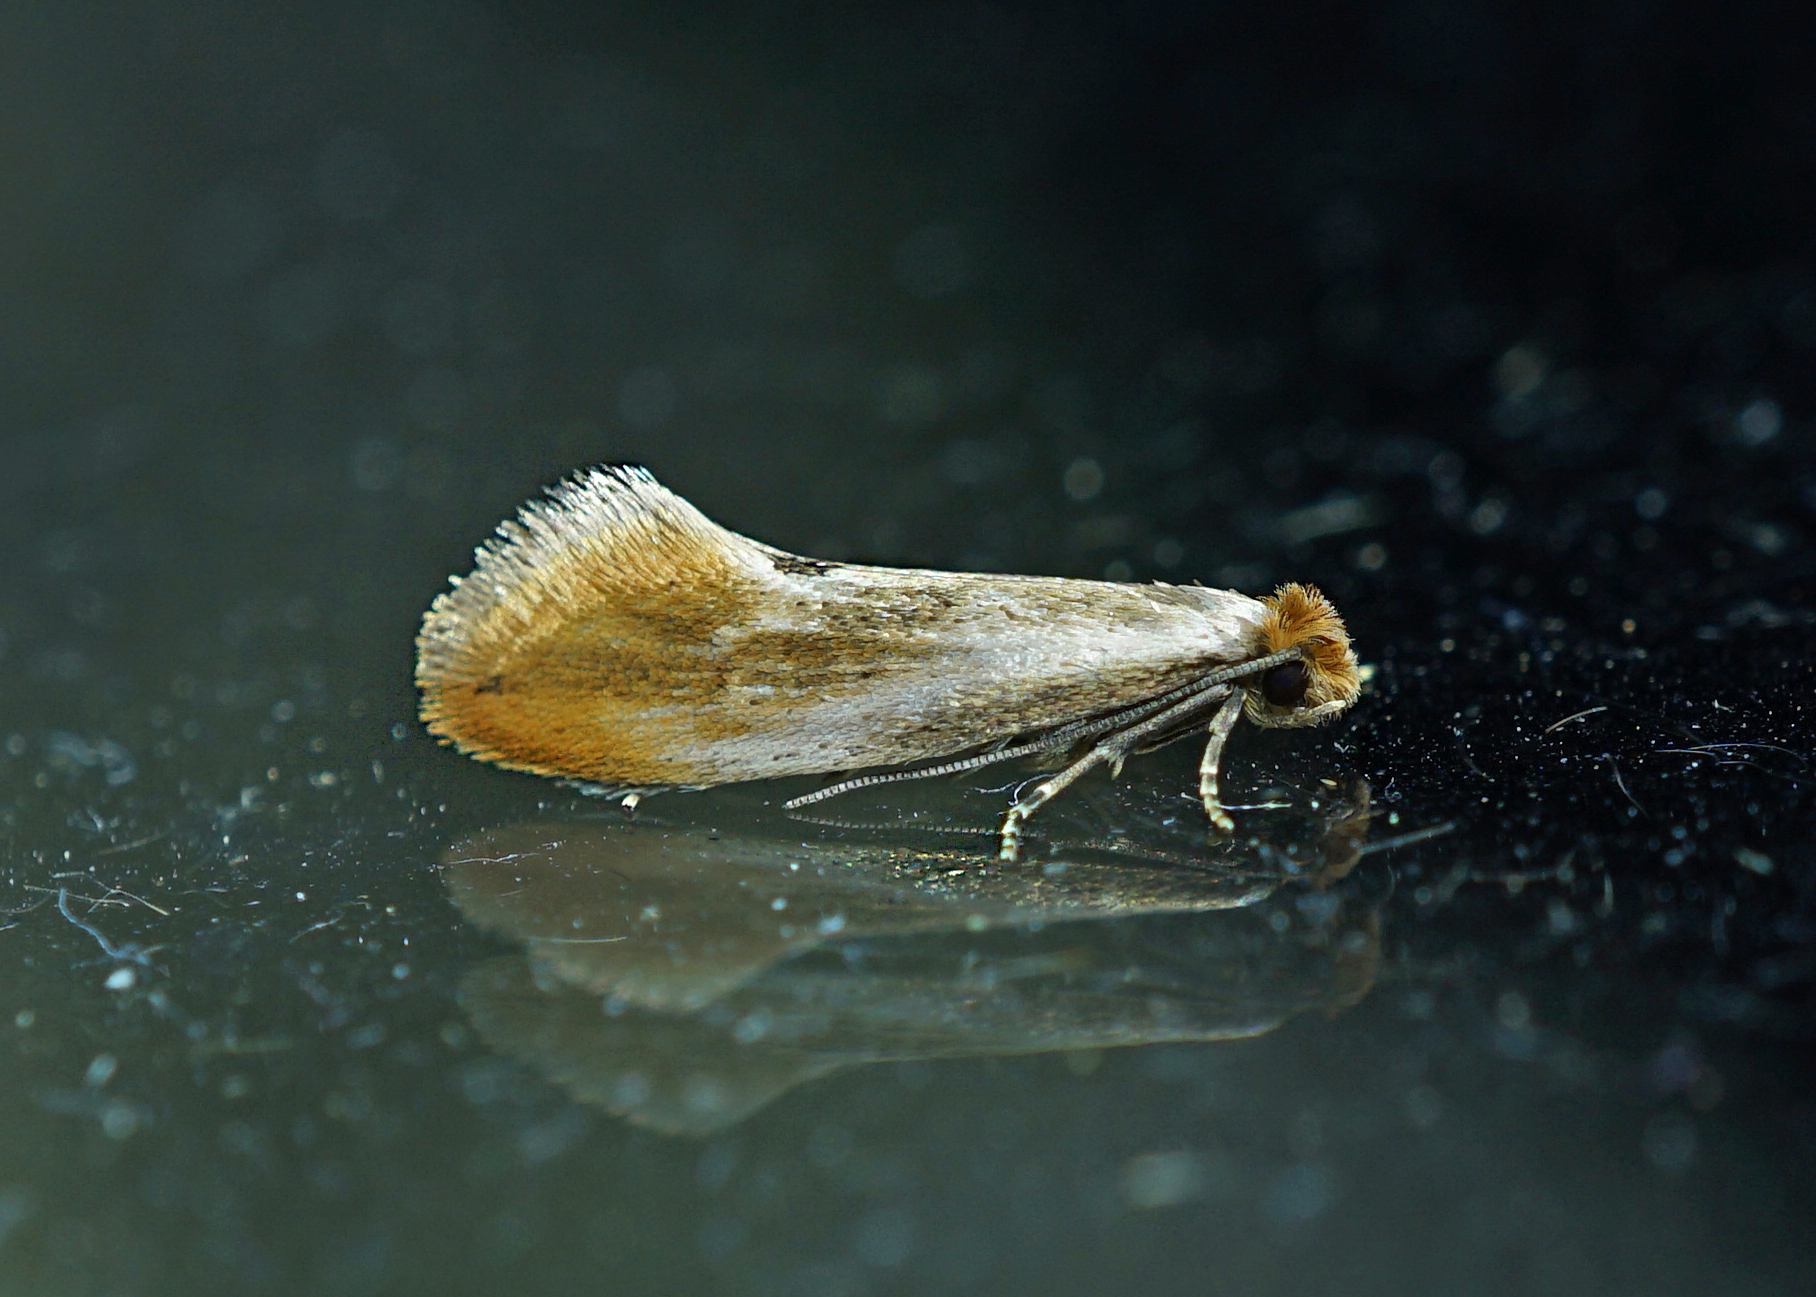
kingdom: Animalia
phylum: Arthropoda
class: Insecta
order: Lepidoptera
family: Tineidae
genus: Tinea
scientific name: Tinea semifulvella
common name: Fulvous clothes
